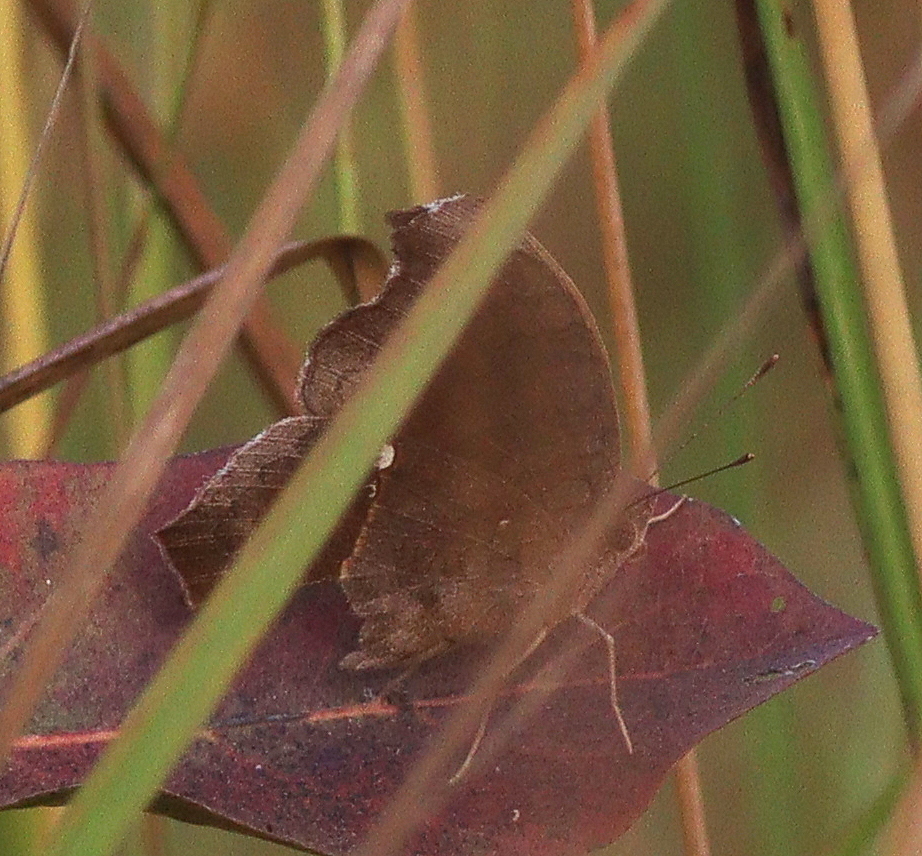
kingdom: Animalia
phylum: Arthropoda
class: Insecta
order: Lepidoptera
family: Nymphalidae
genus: Junonia
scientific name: Junonia chorimene
